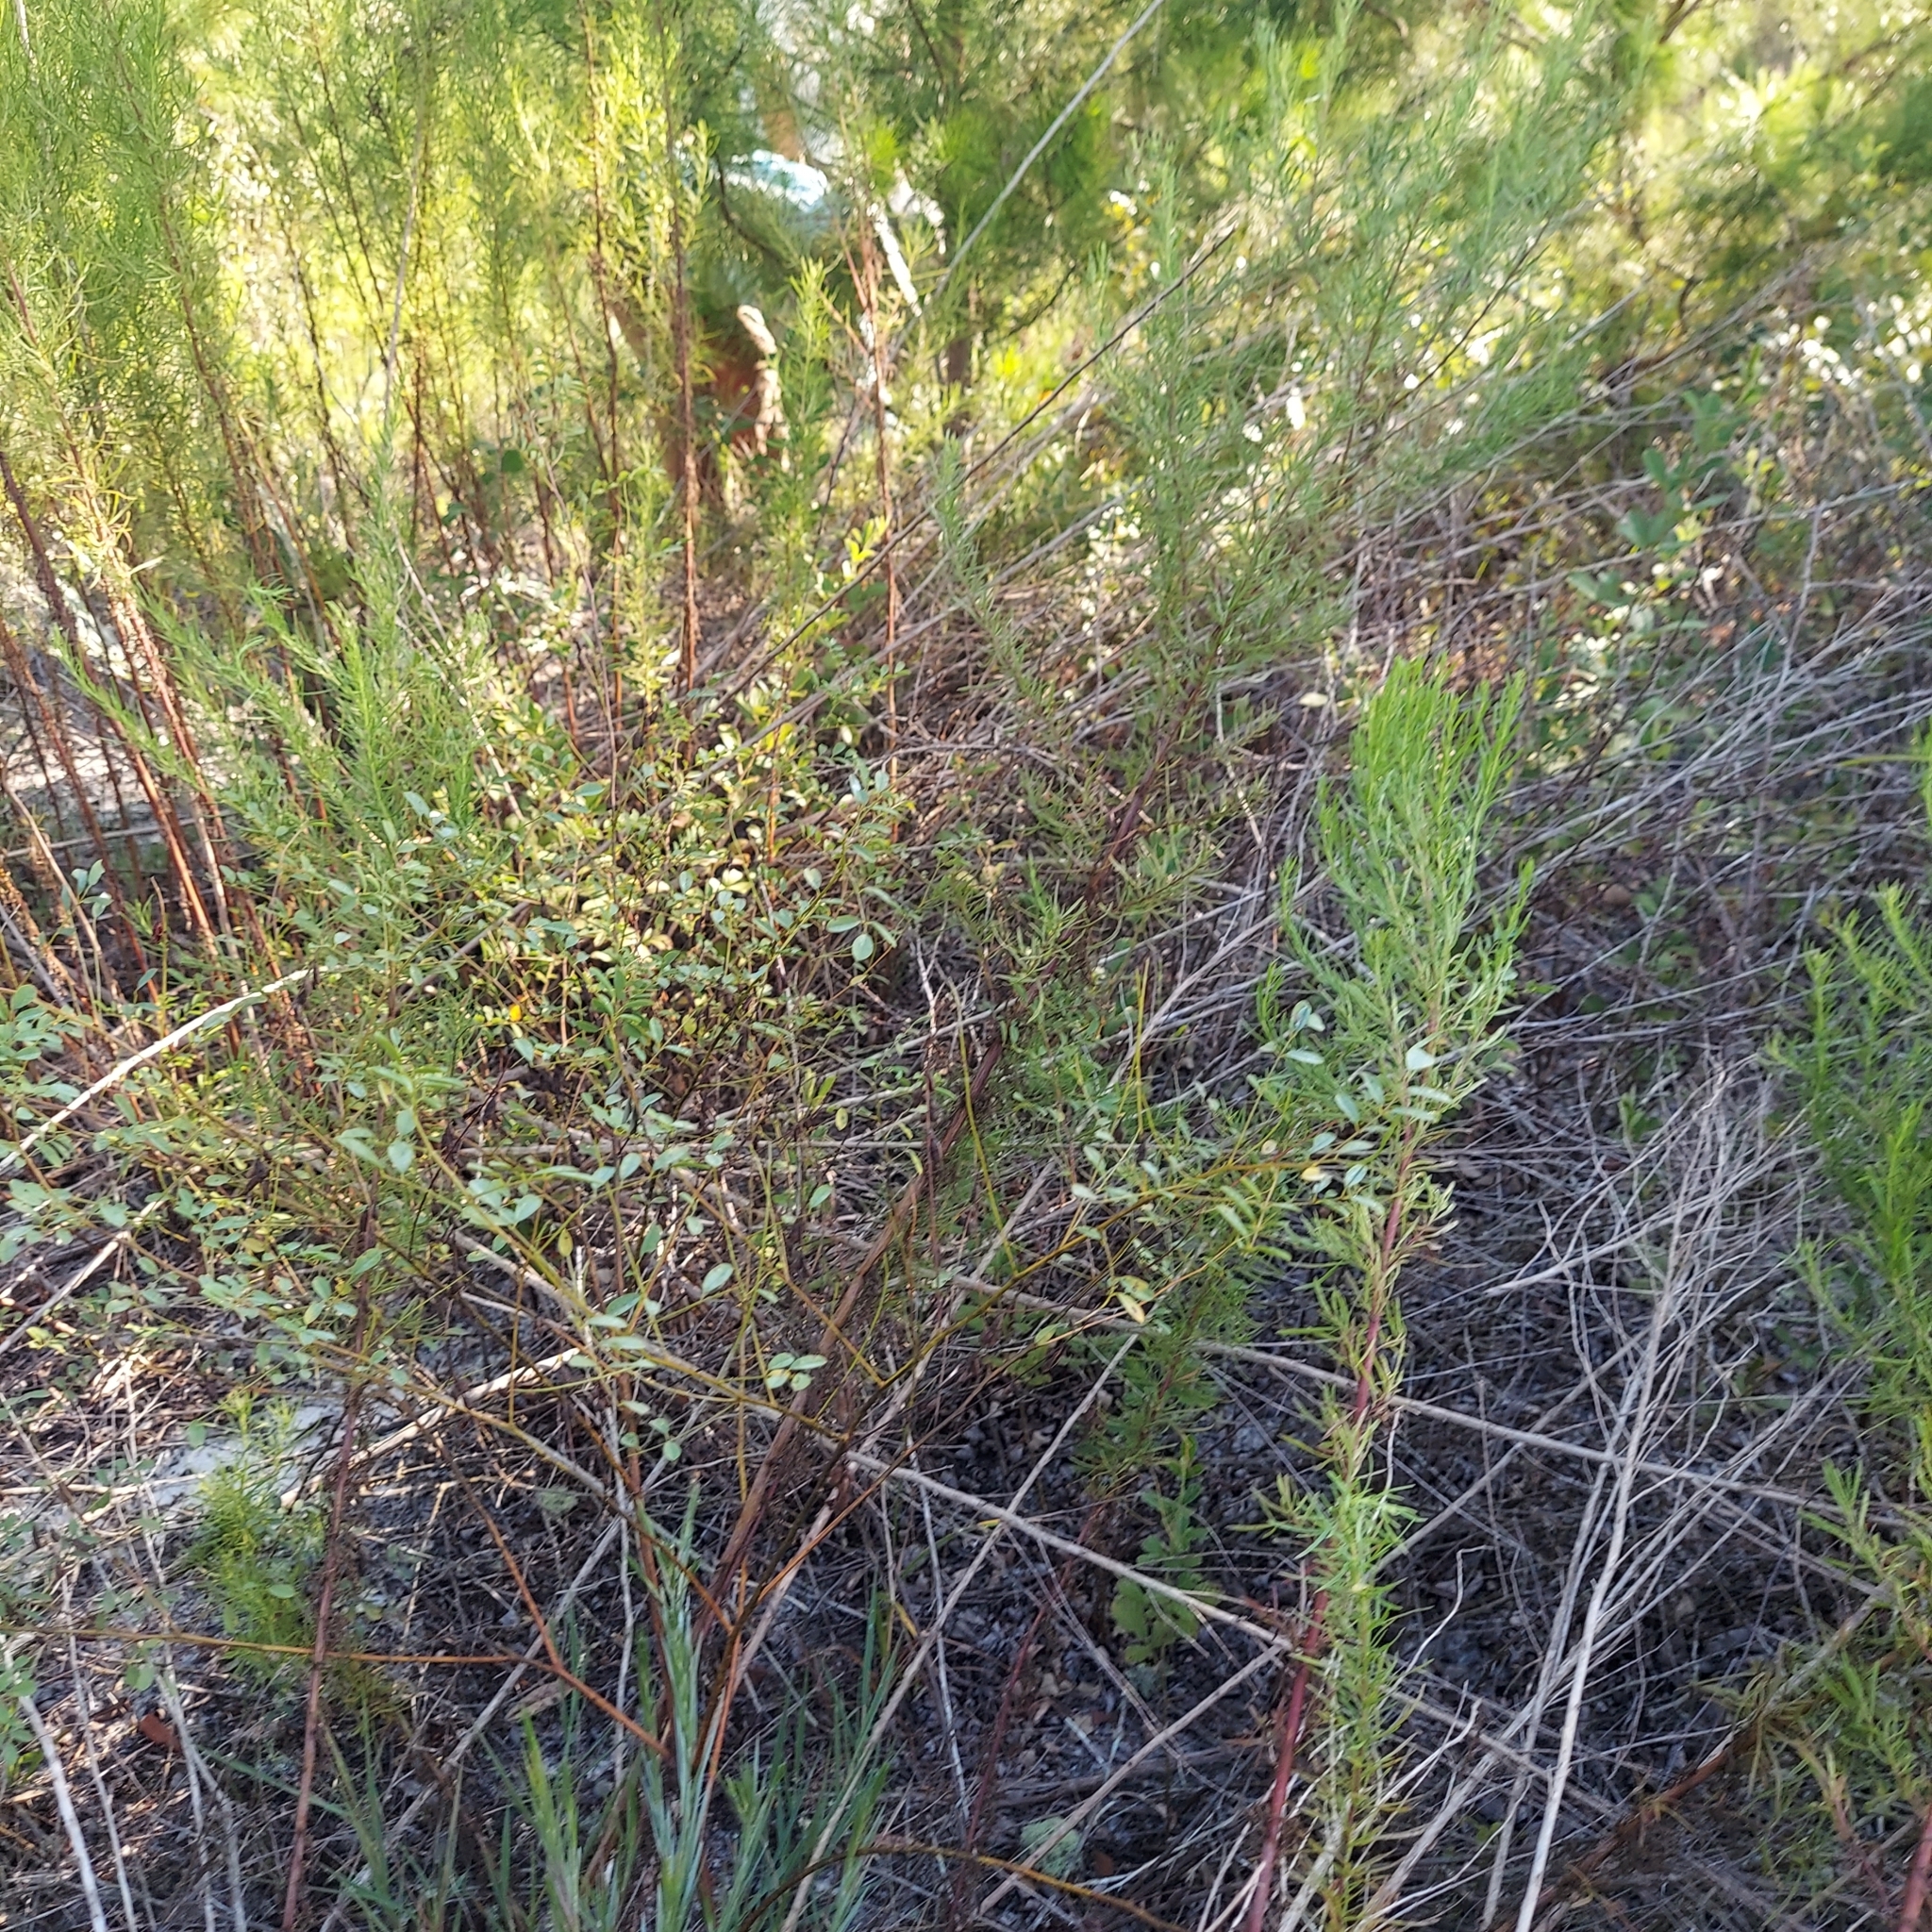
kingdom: Plantae
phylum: Tracheophyta
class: Magnoliopsida
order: Fabales
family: Fabaceae
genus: Indigofera
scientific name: Indigofera caroliniana
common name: Wild indigo
